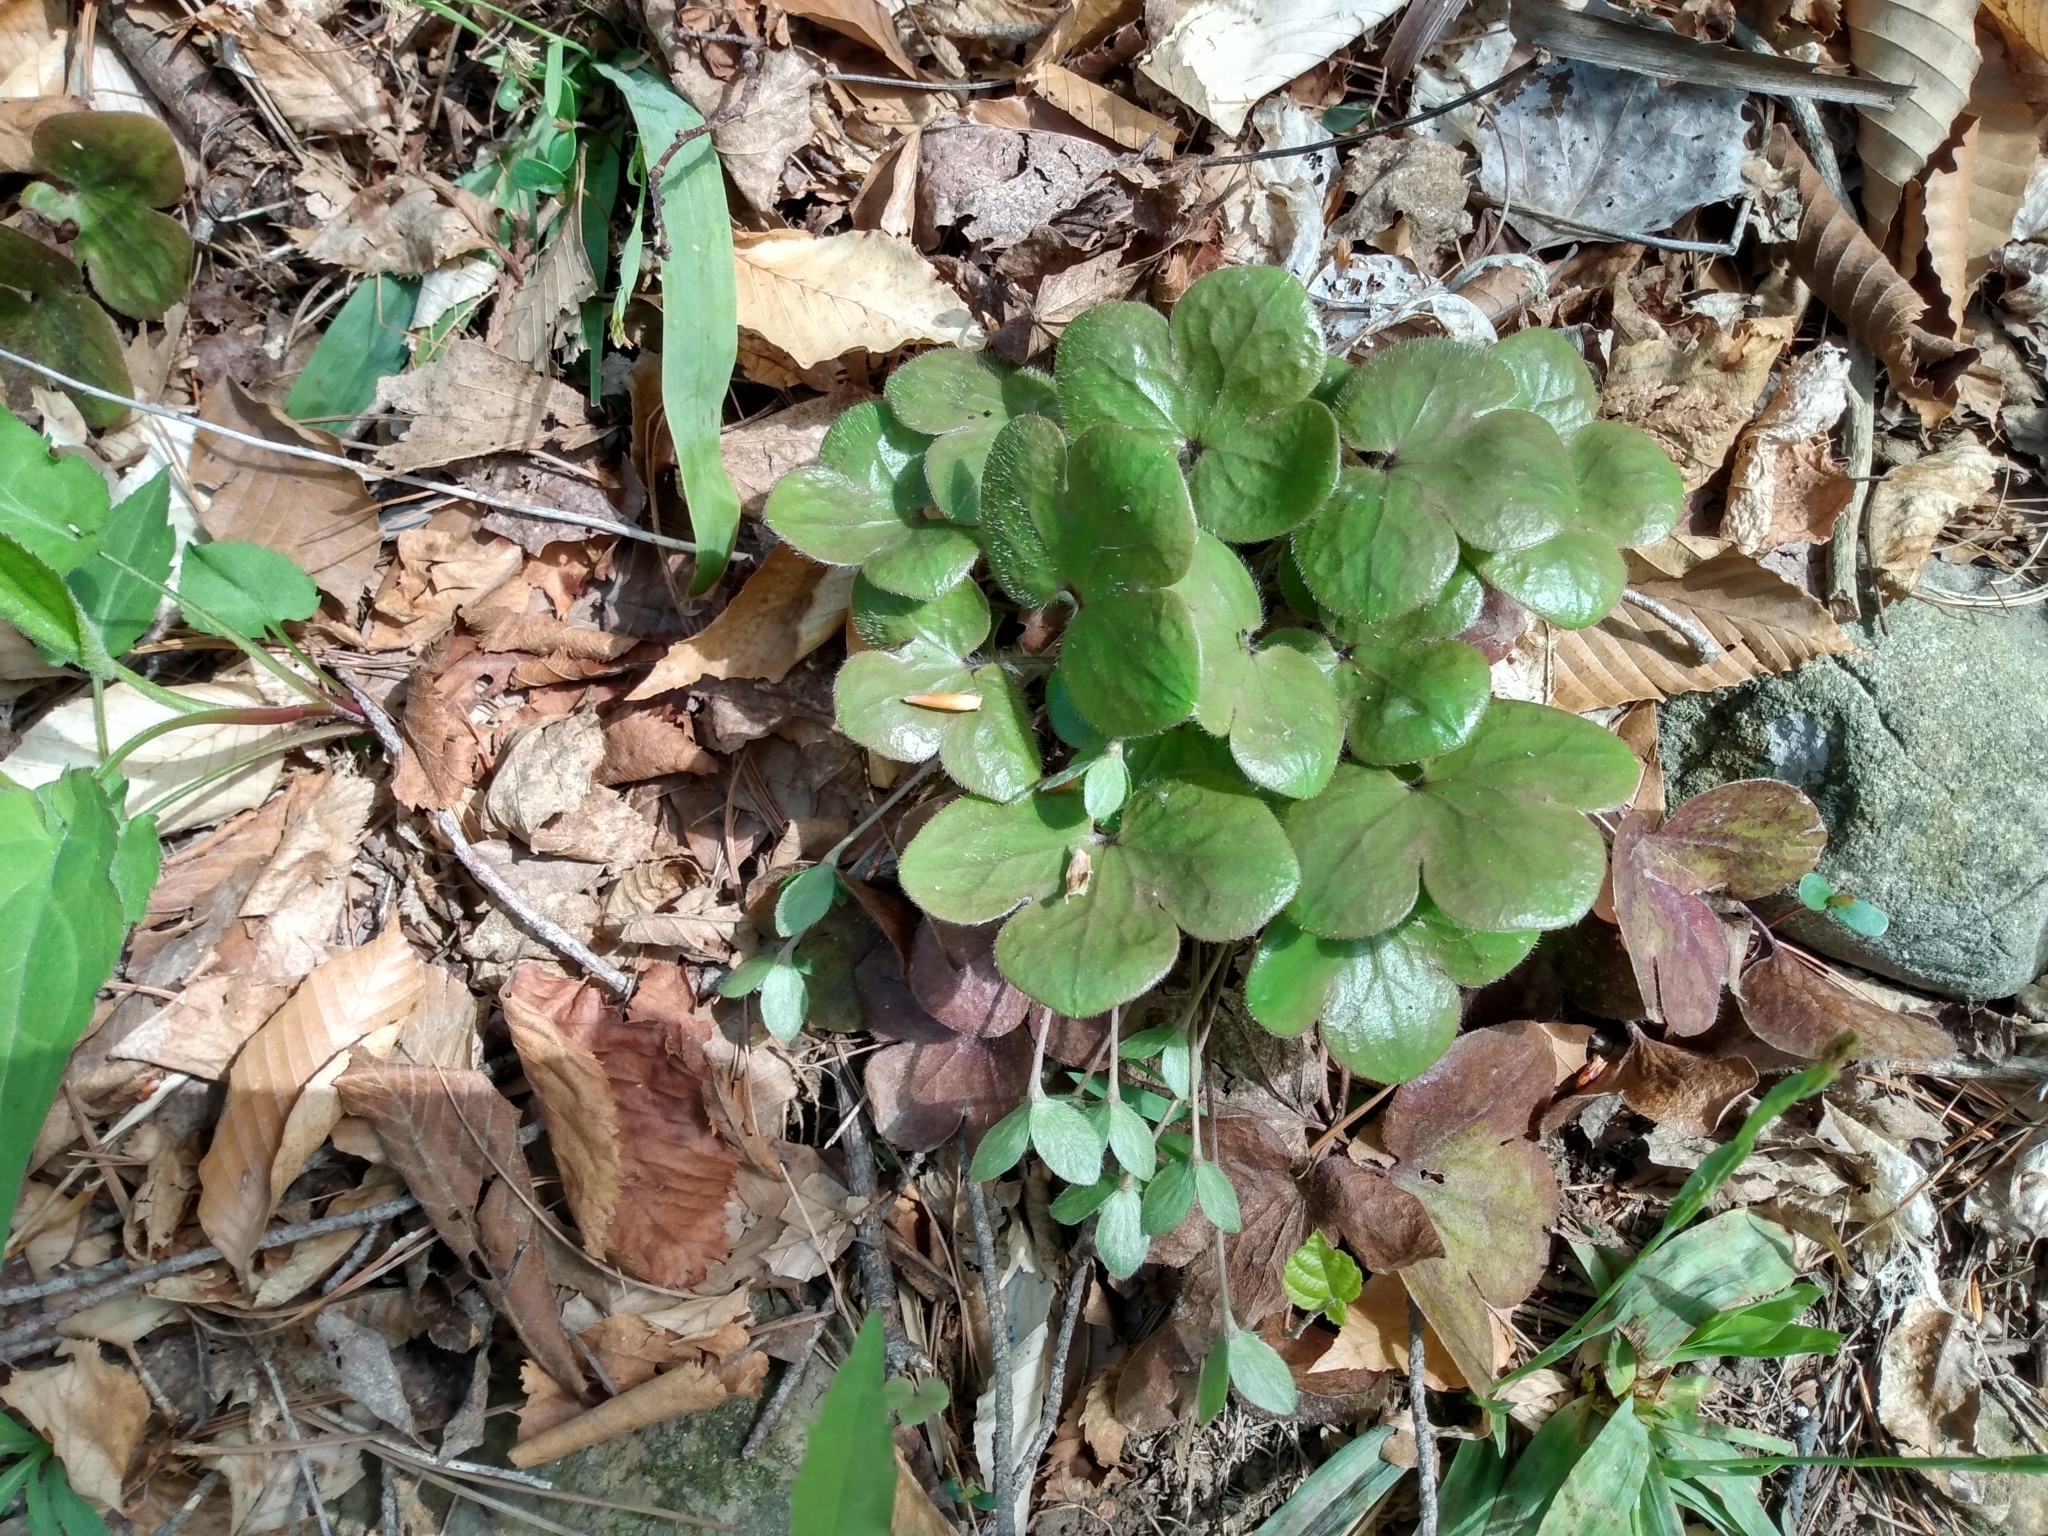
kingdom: Plantae
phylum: Tracheophyta
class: Magnoliopsida
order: Ranunculales
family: Ranunculaceae
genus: Hepatica
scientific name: Hepatica americana
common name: American hepatica
